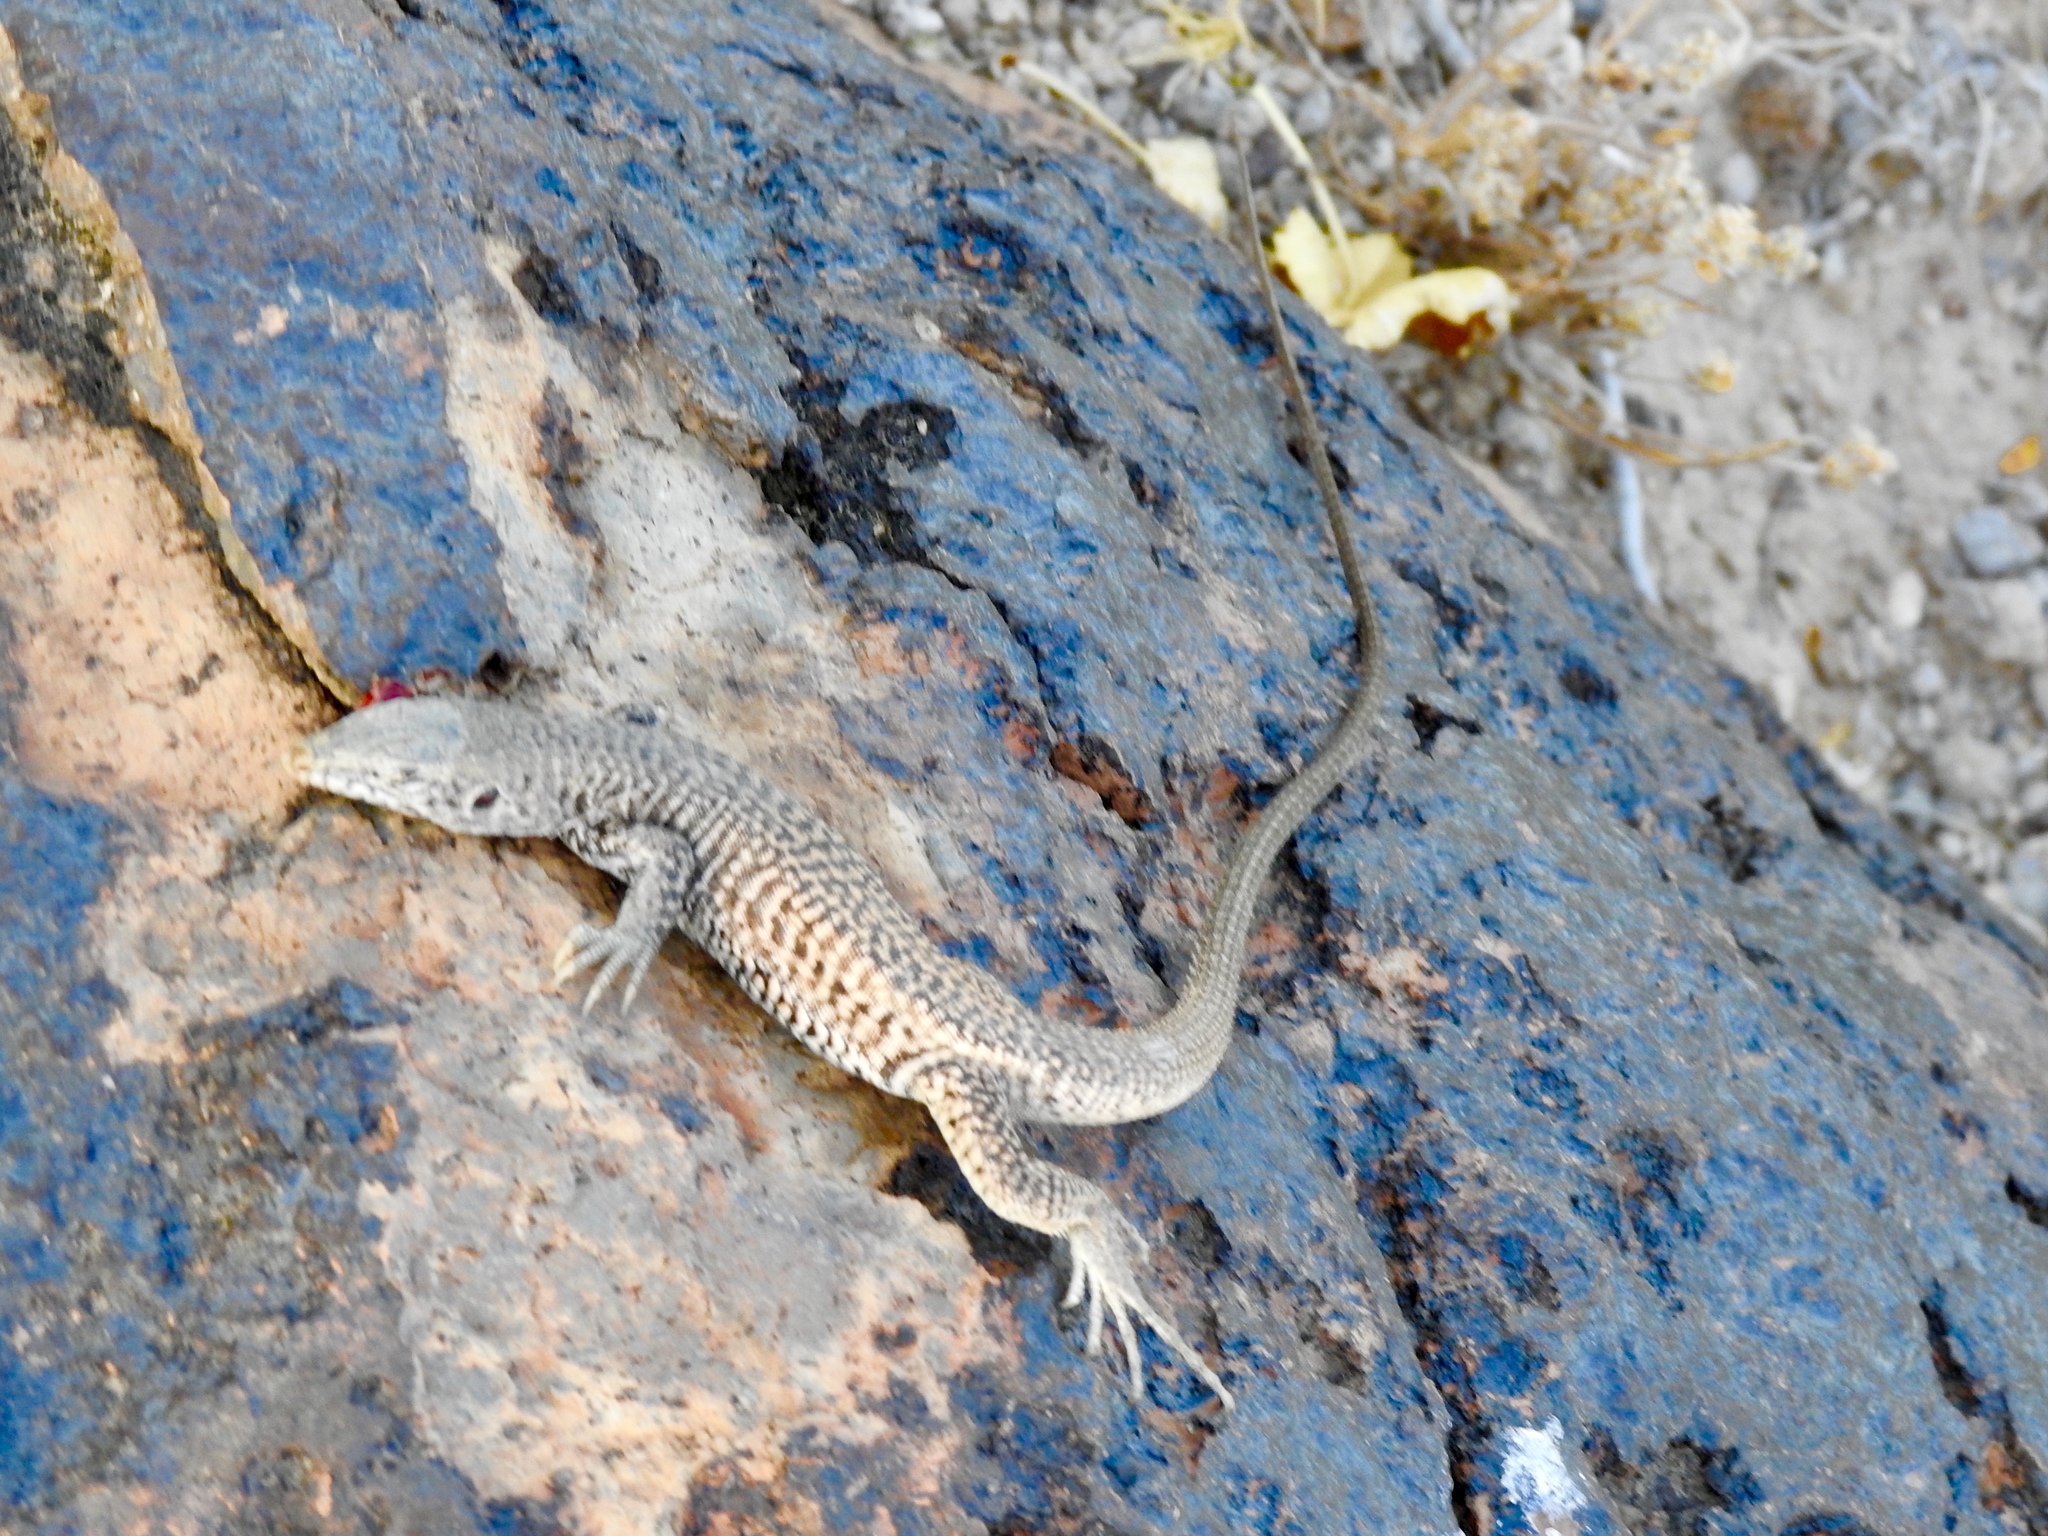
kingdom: Animalia
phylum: Chordata
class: Squamata
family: Teiidae
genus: Aspidoscelis
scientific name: Aspidoscelis tigris
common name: Tiger whiptail
